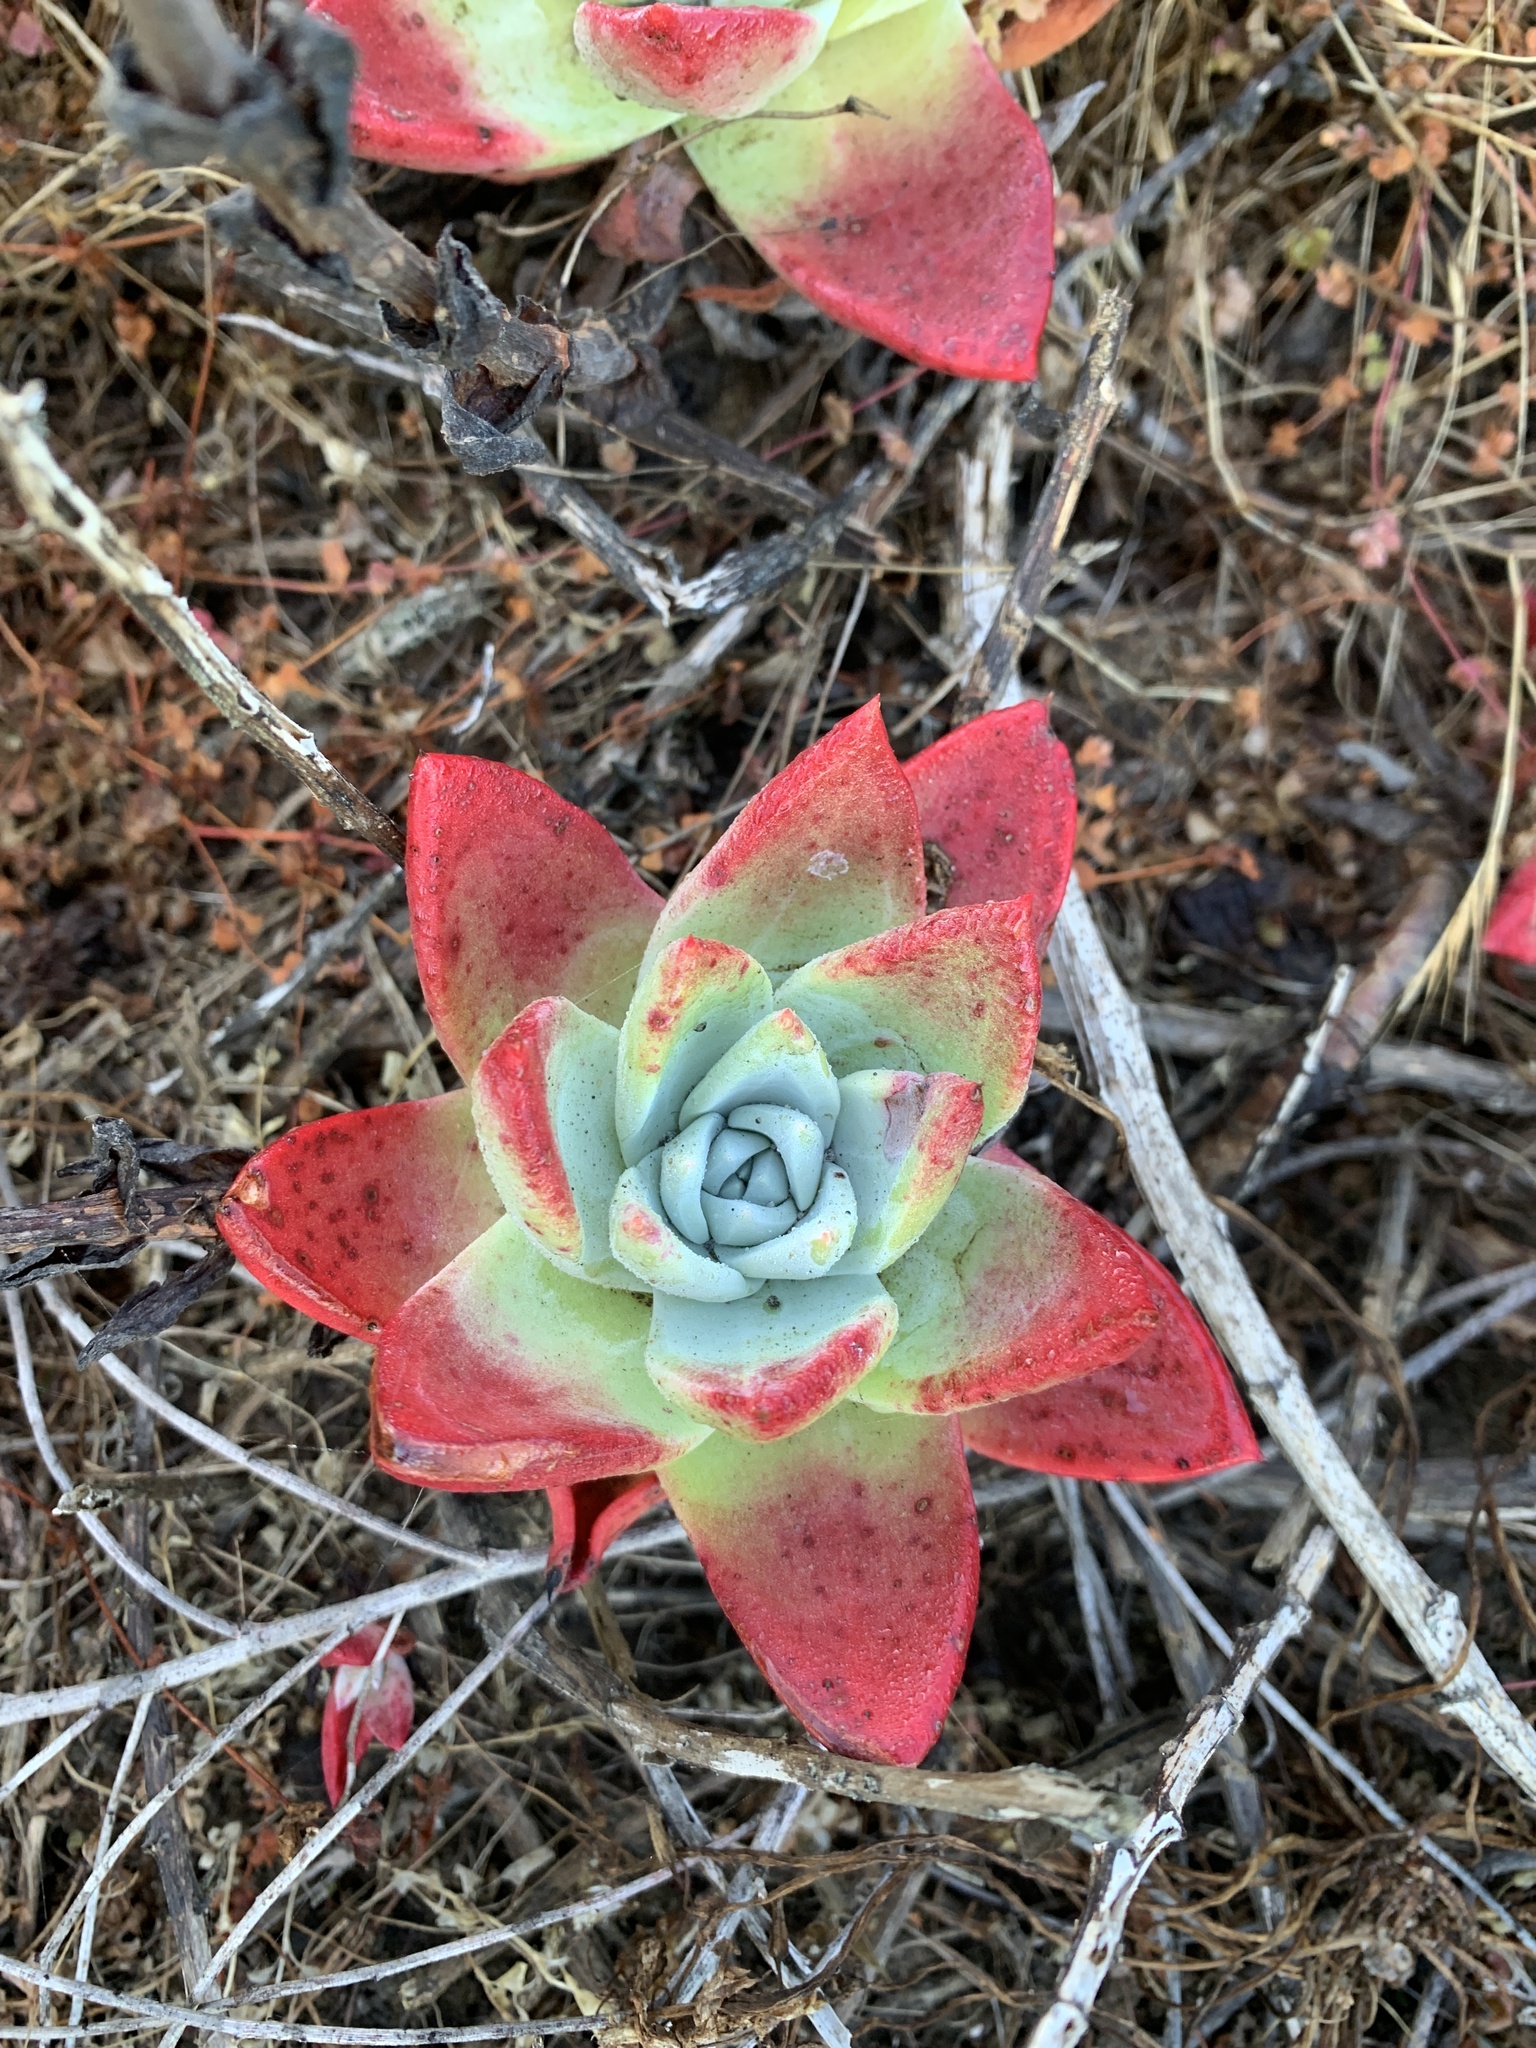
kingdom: Plantae
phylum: Tracheophyta
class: Magnoliopsida
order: Saxifragales
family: Crassulaceae
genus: Dudleya
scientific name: Dudleya farinosa
